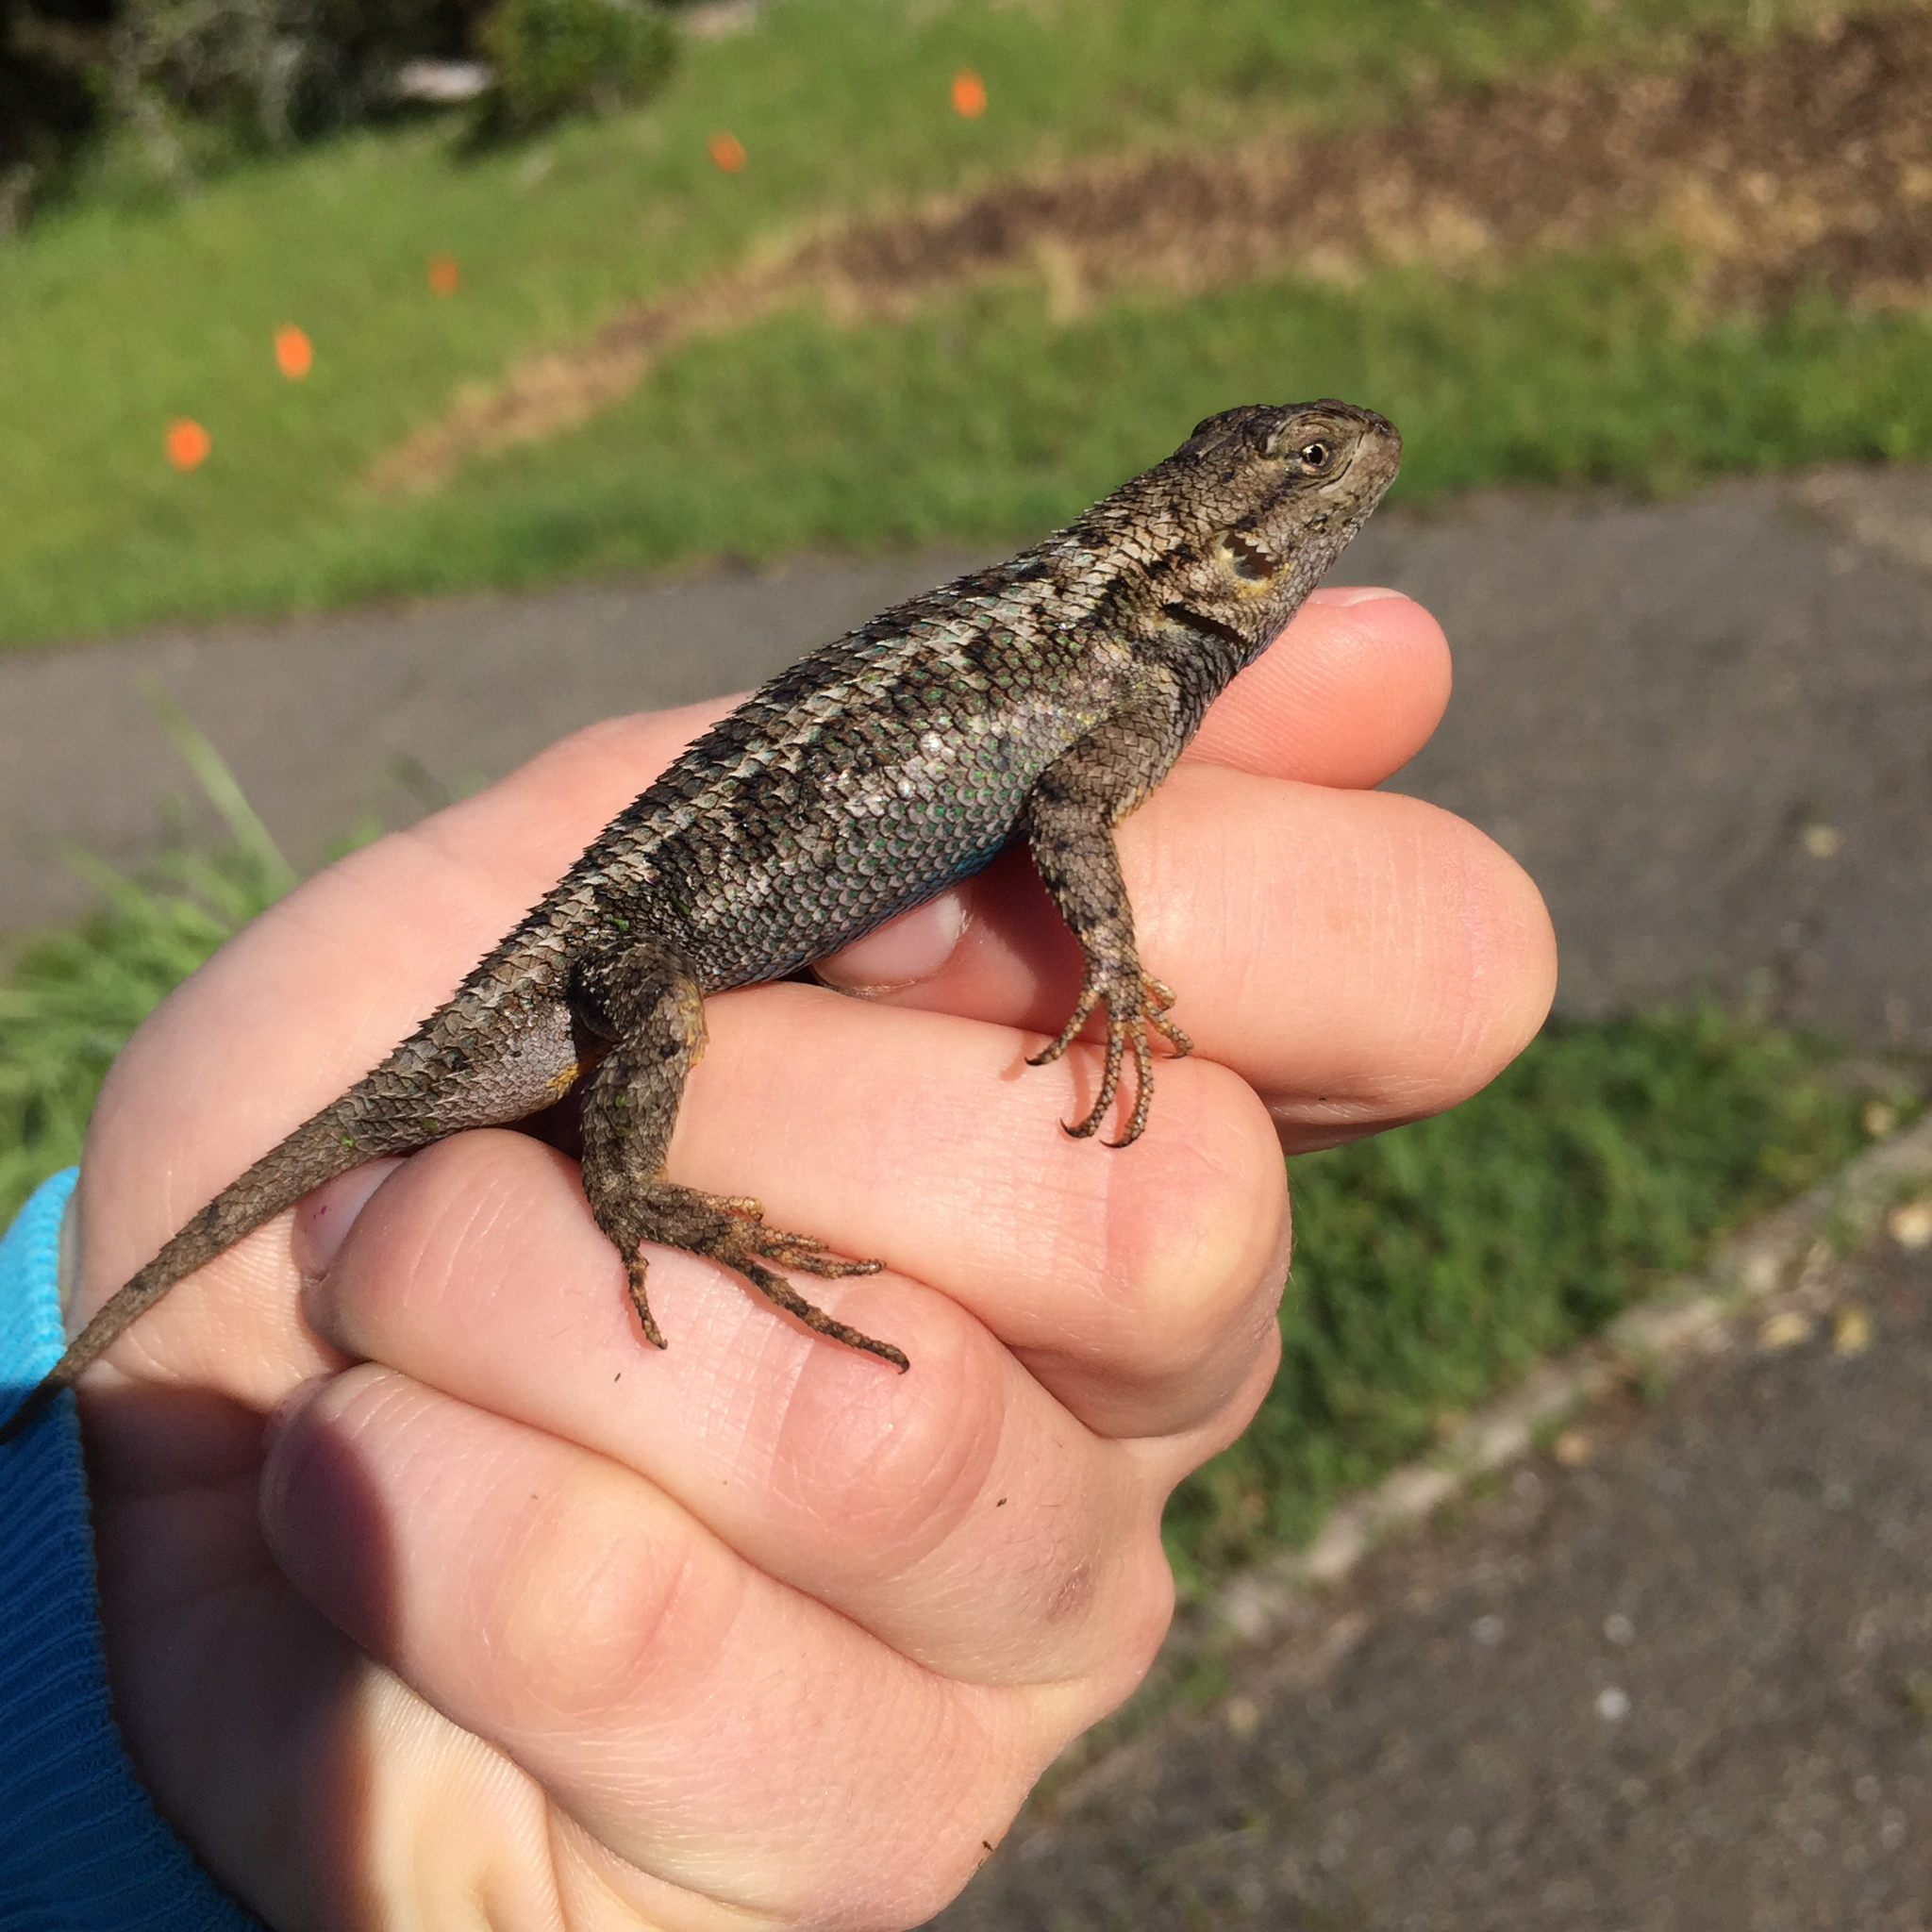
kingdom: Animalia
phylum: Chordata
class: Squamata
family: Phrynosomatidae
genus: Sceloporus
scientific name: Sceloporus occidentalis
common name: Western fence lizard
